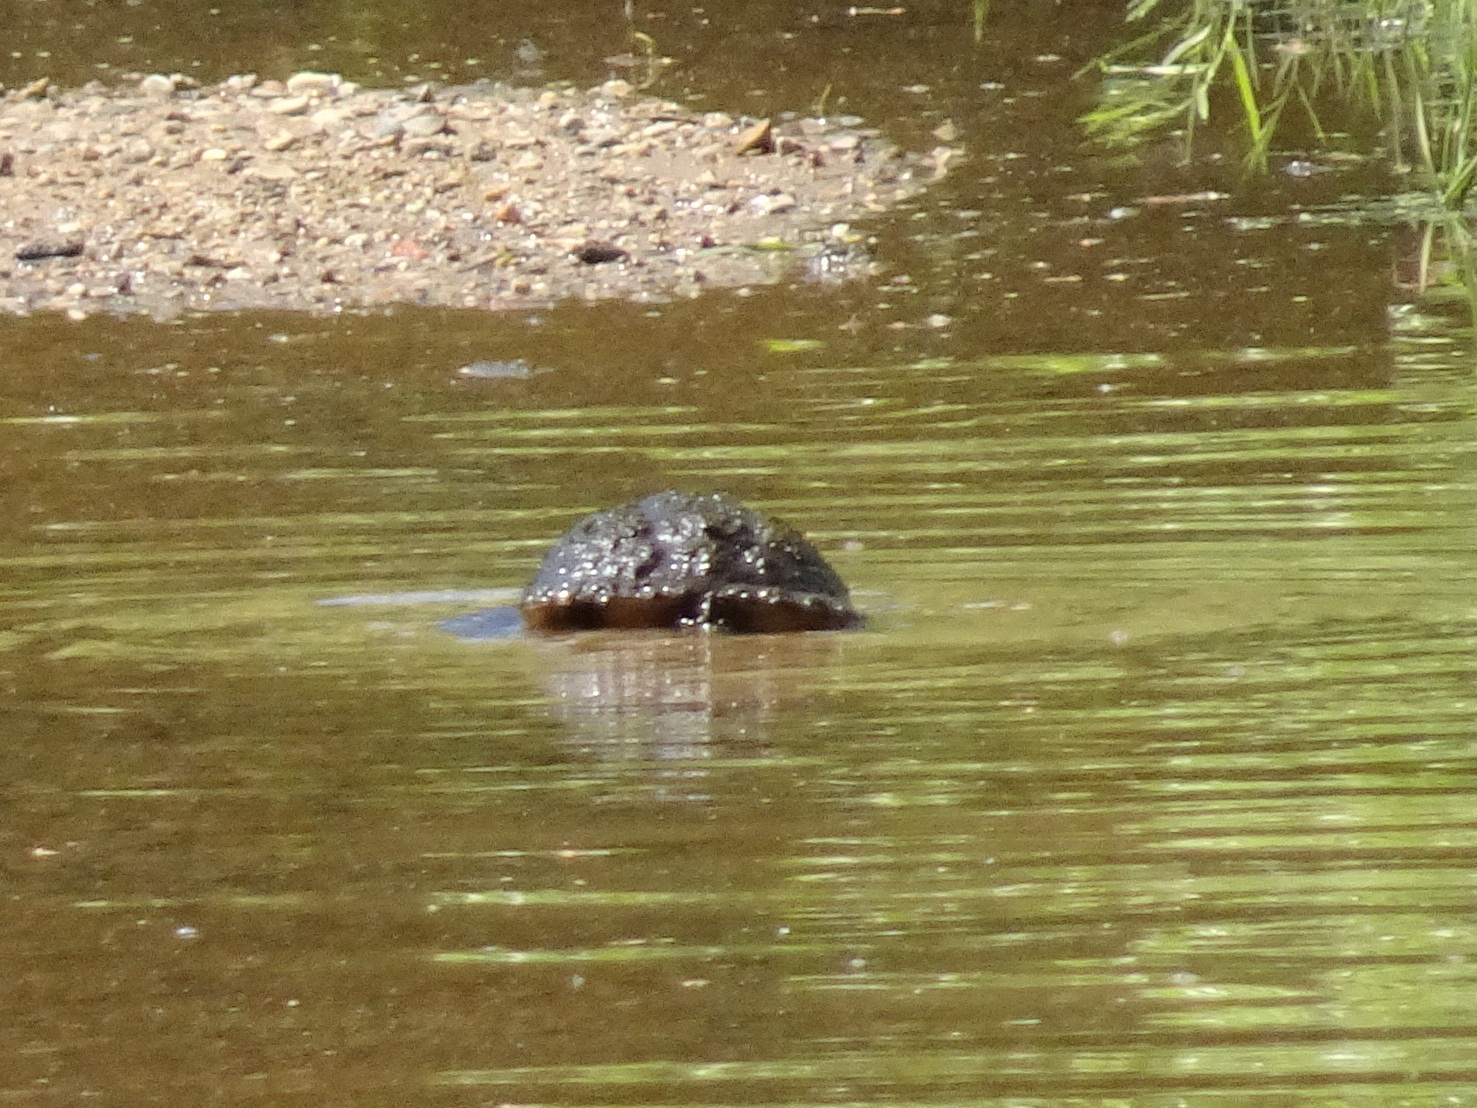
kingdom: Animalia
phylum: Chordata
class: Testudines
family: Chelydridae
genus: Chelydra
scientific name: Chelydra serpentina
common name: Common snapping turtle
